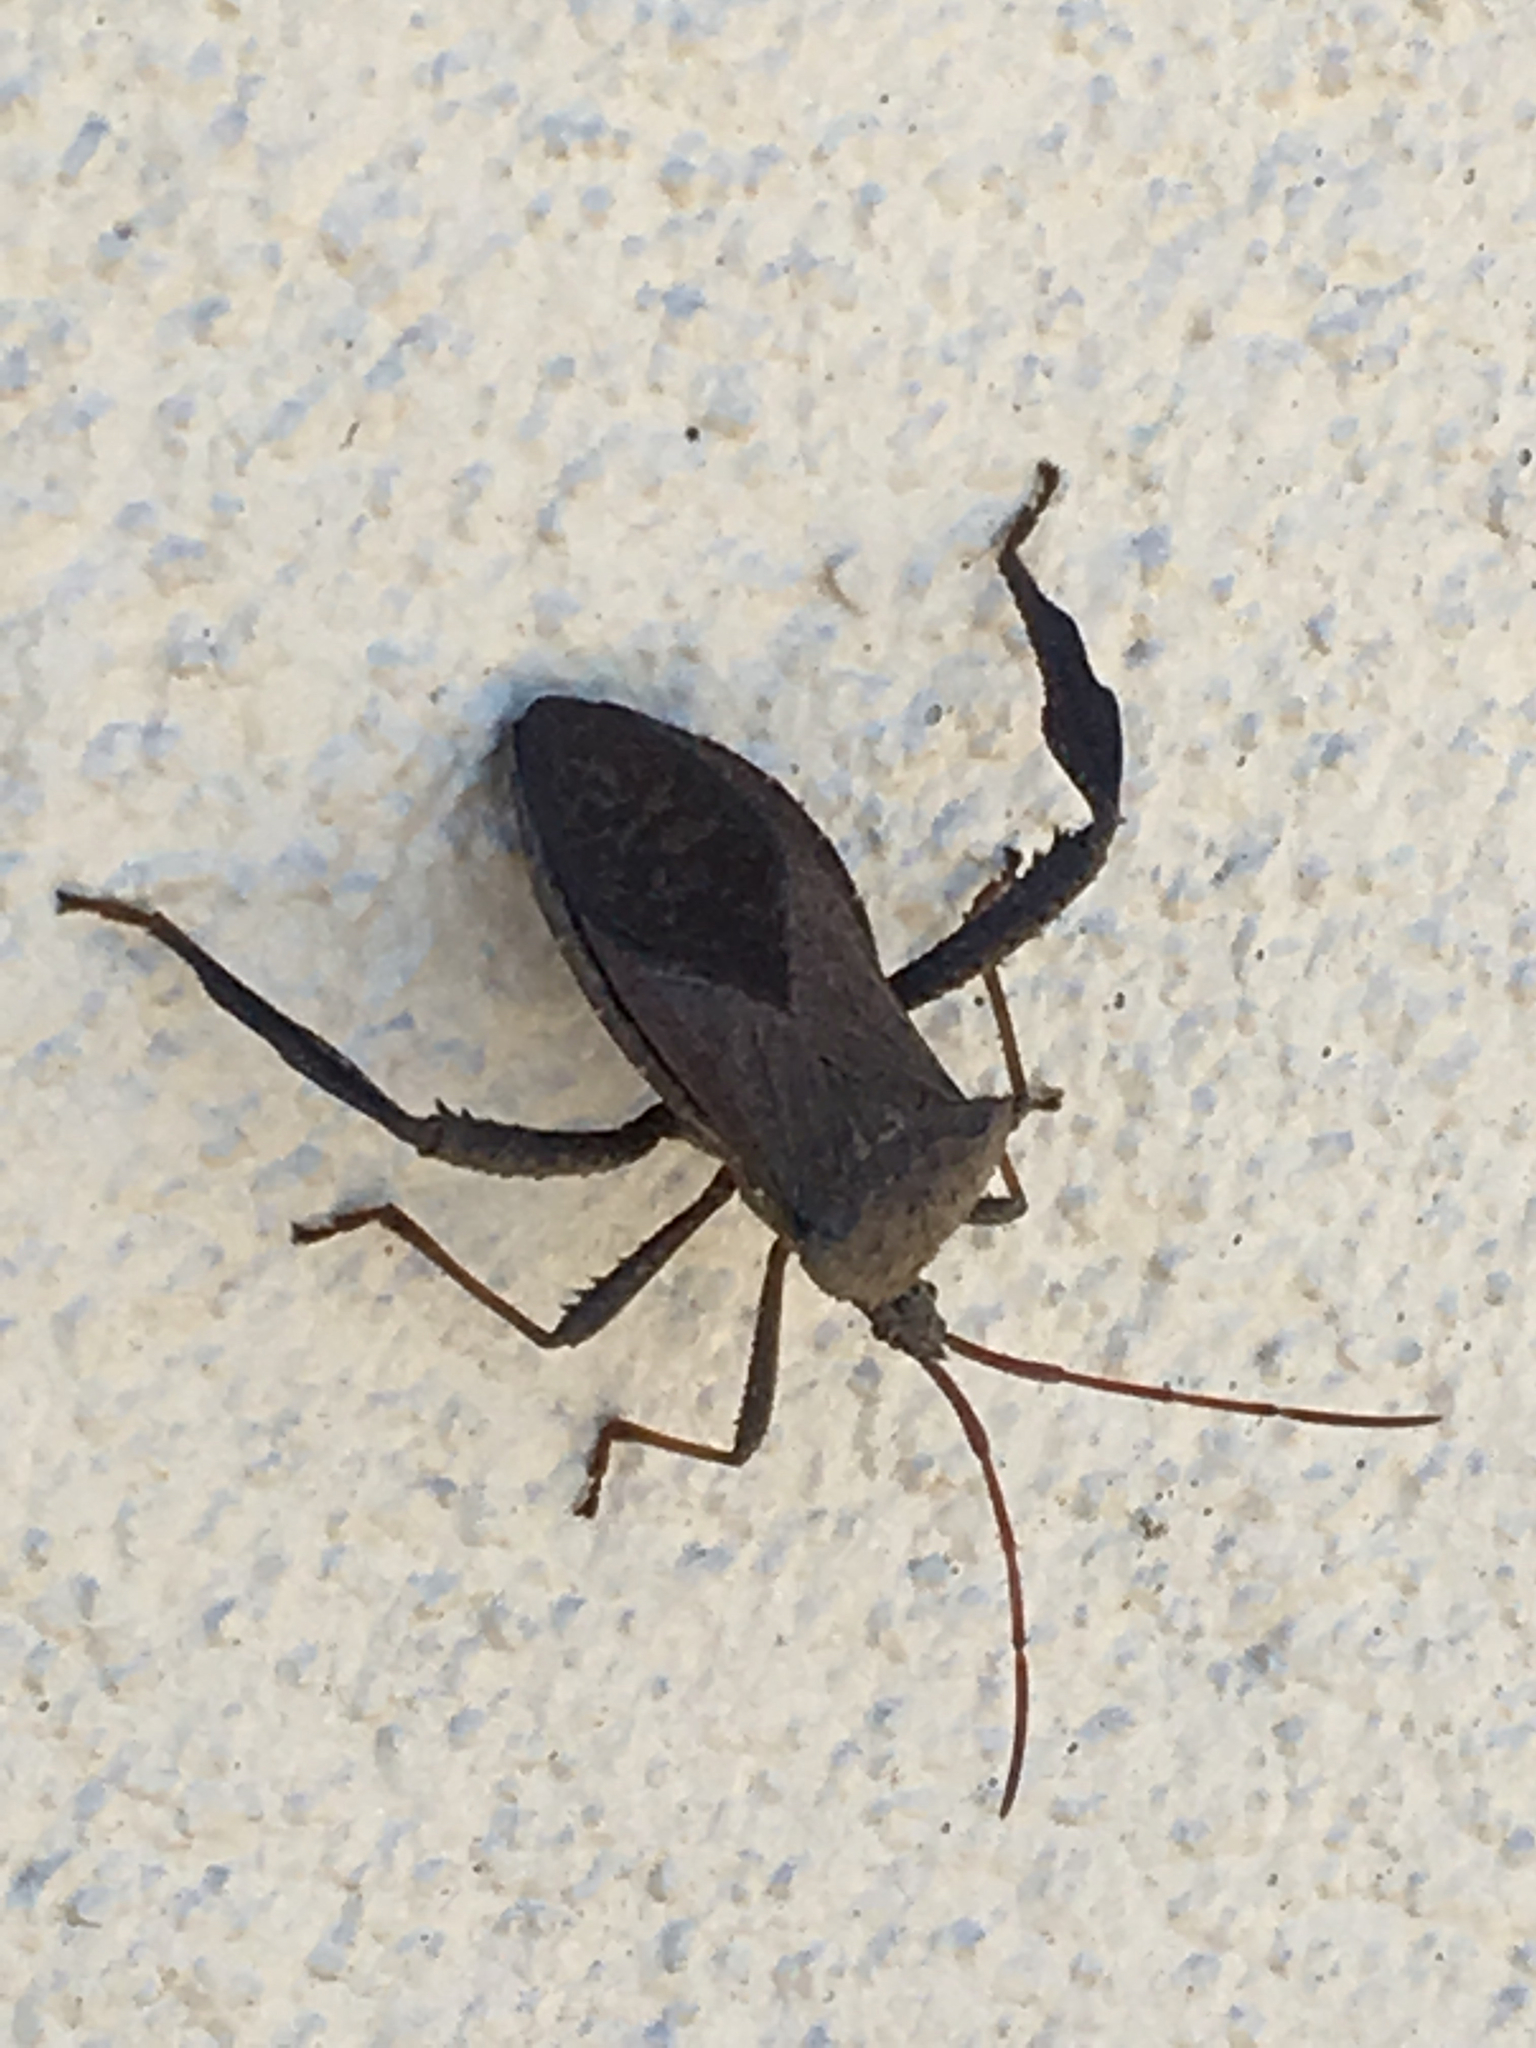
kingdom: Animalia
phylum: Arthropoda
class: Insecta
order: Hemiptera
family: Coreidae
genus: Acanthocephala
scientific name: Acanthocephala femorata
